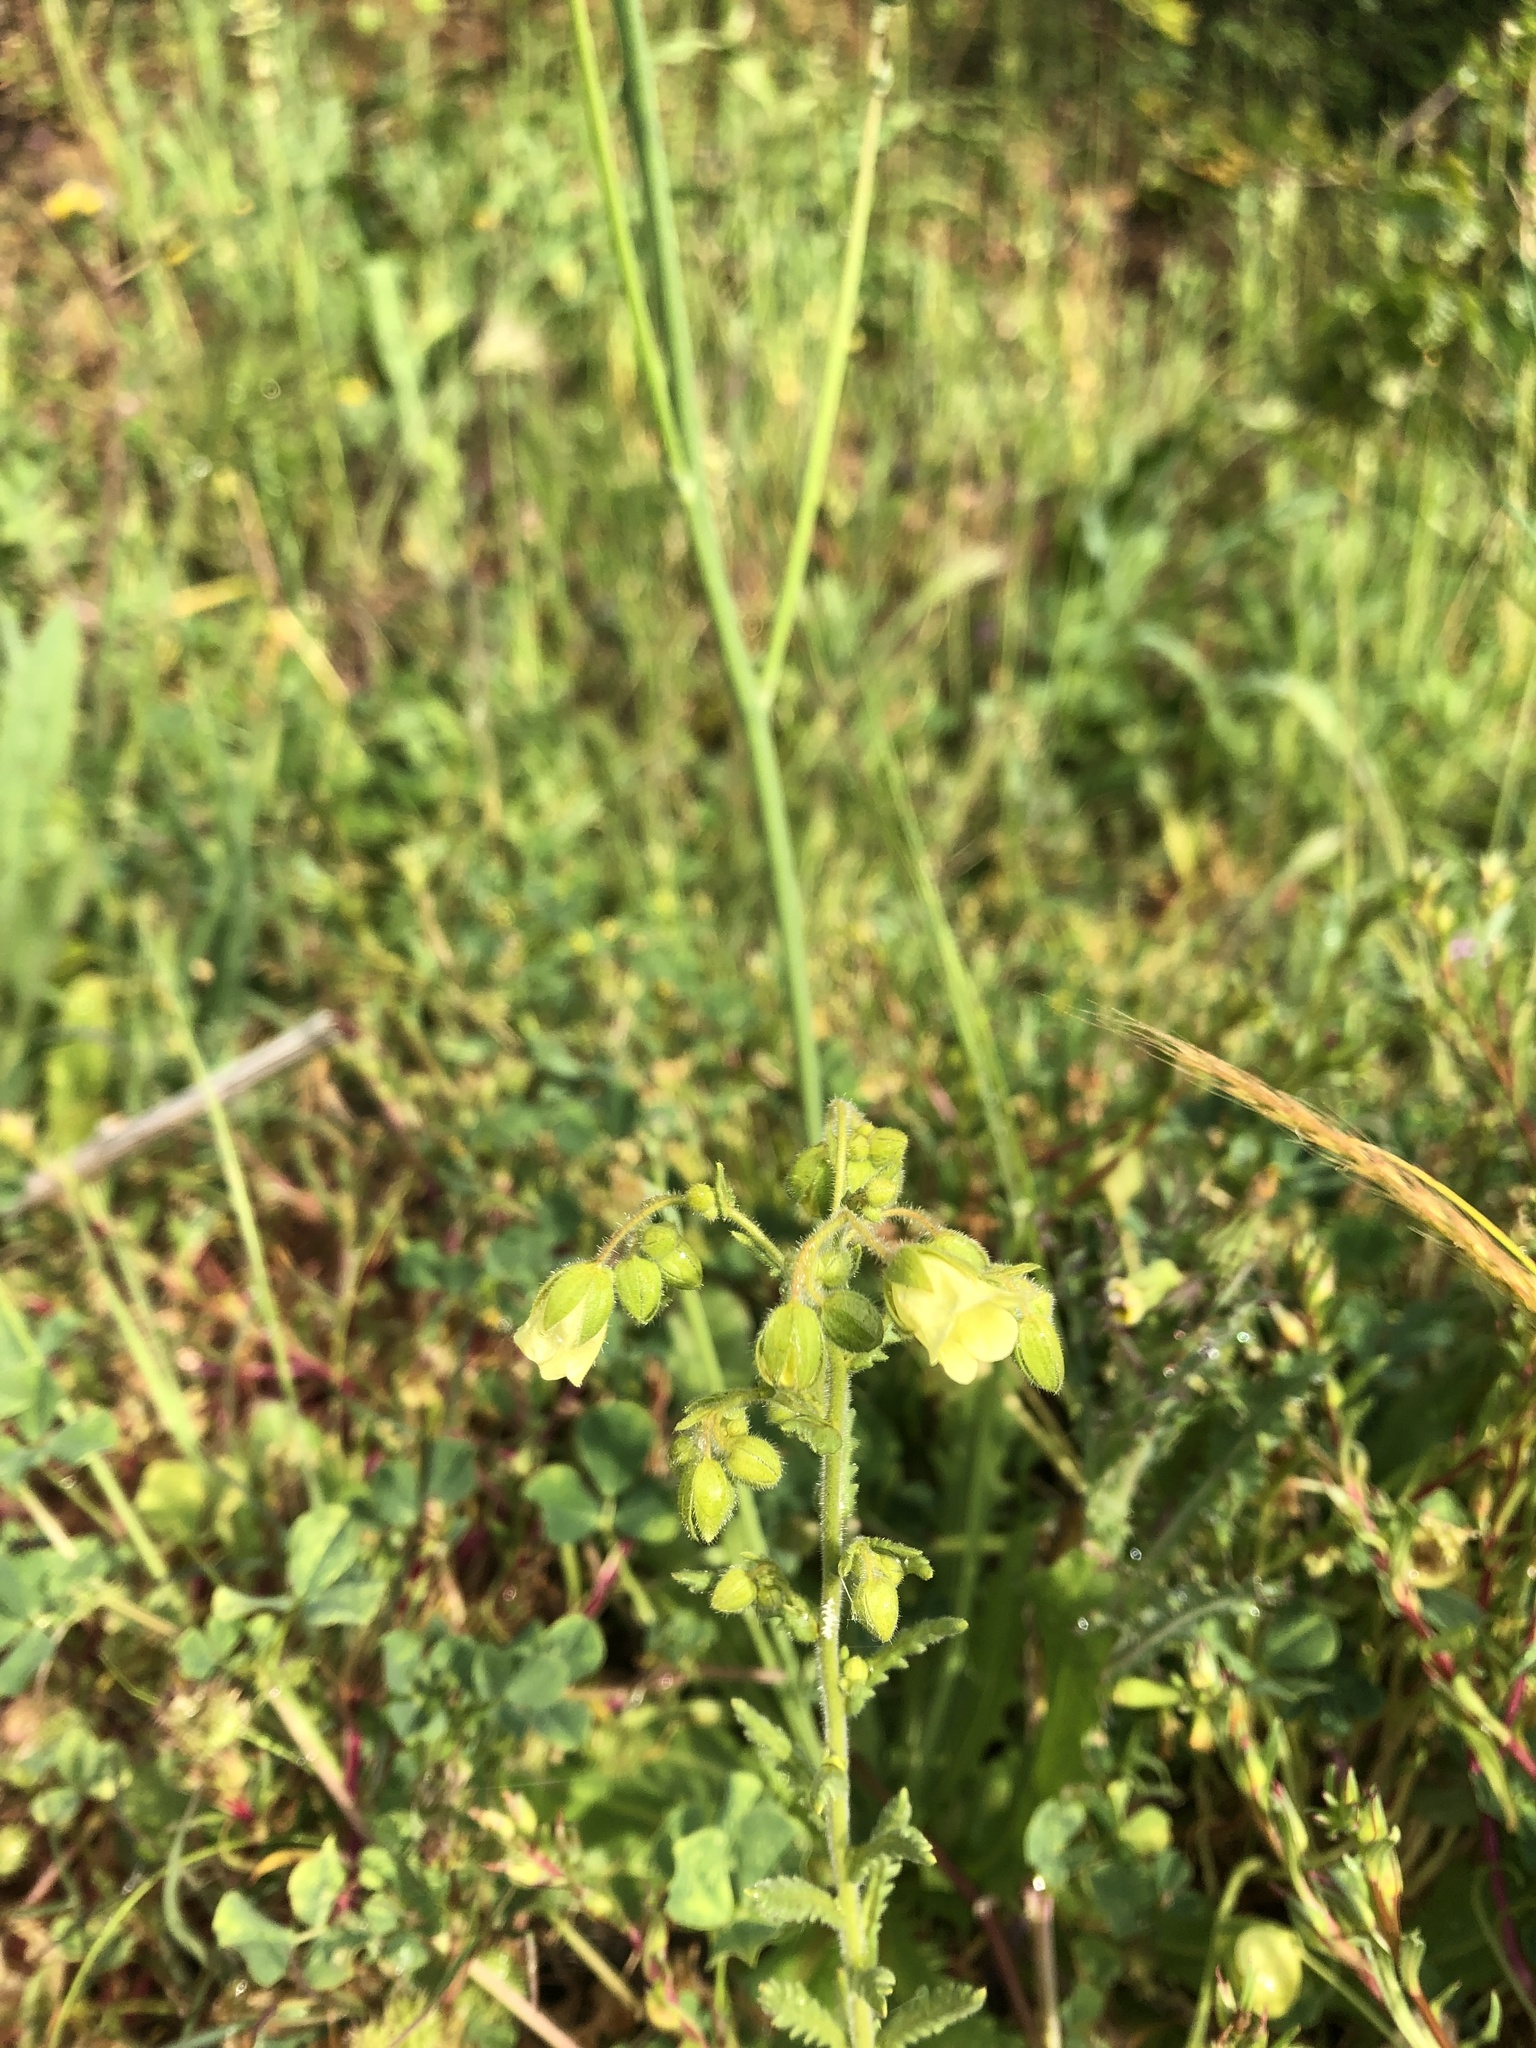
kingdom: Plantae
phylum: Tracheophyta
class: Magnoliopsida
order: Boraginales
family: Hydrophyllaceae
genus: Emmenanthe
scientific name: Emmenanthe penduliflora
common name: Whispering-bells
